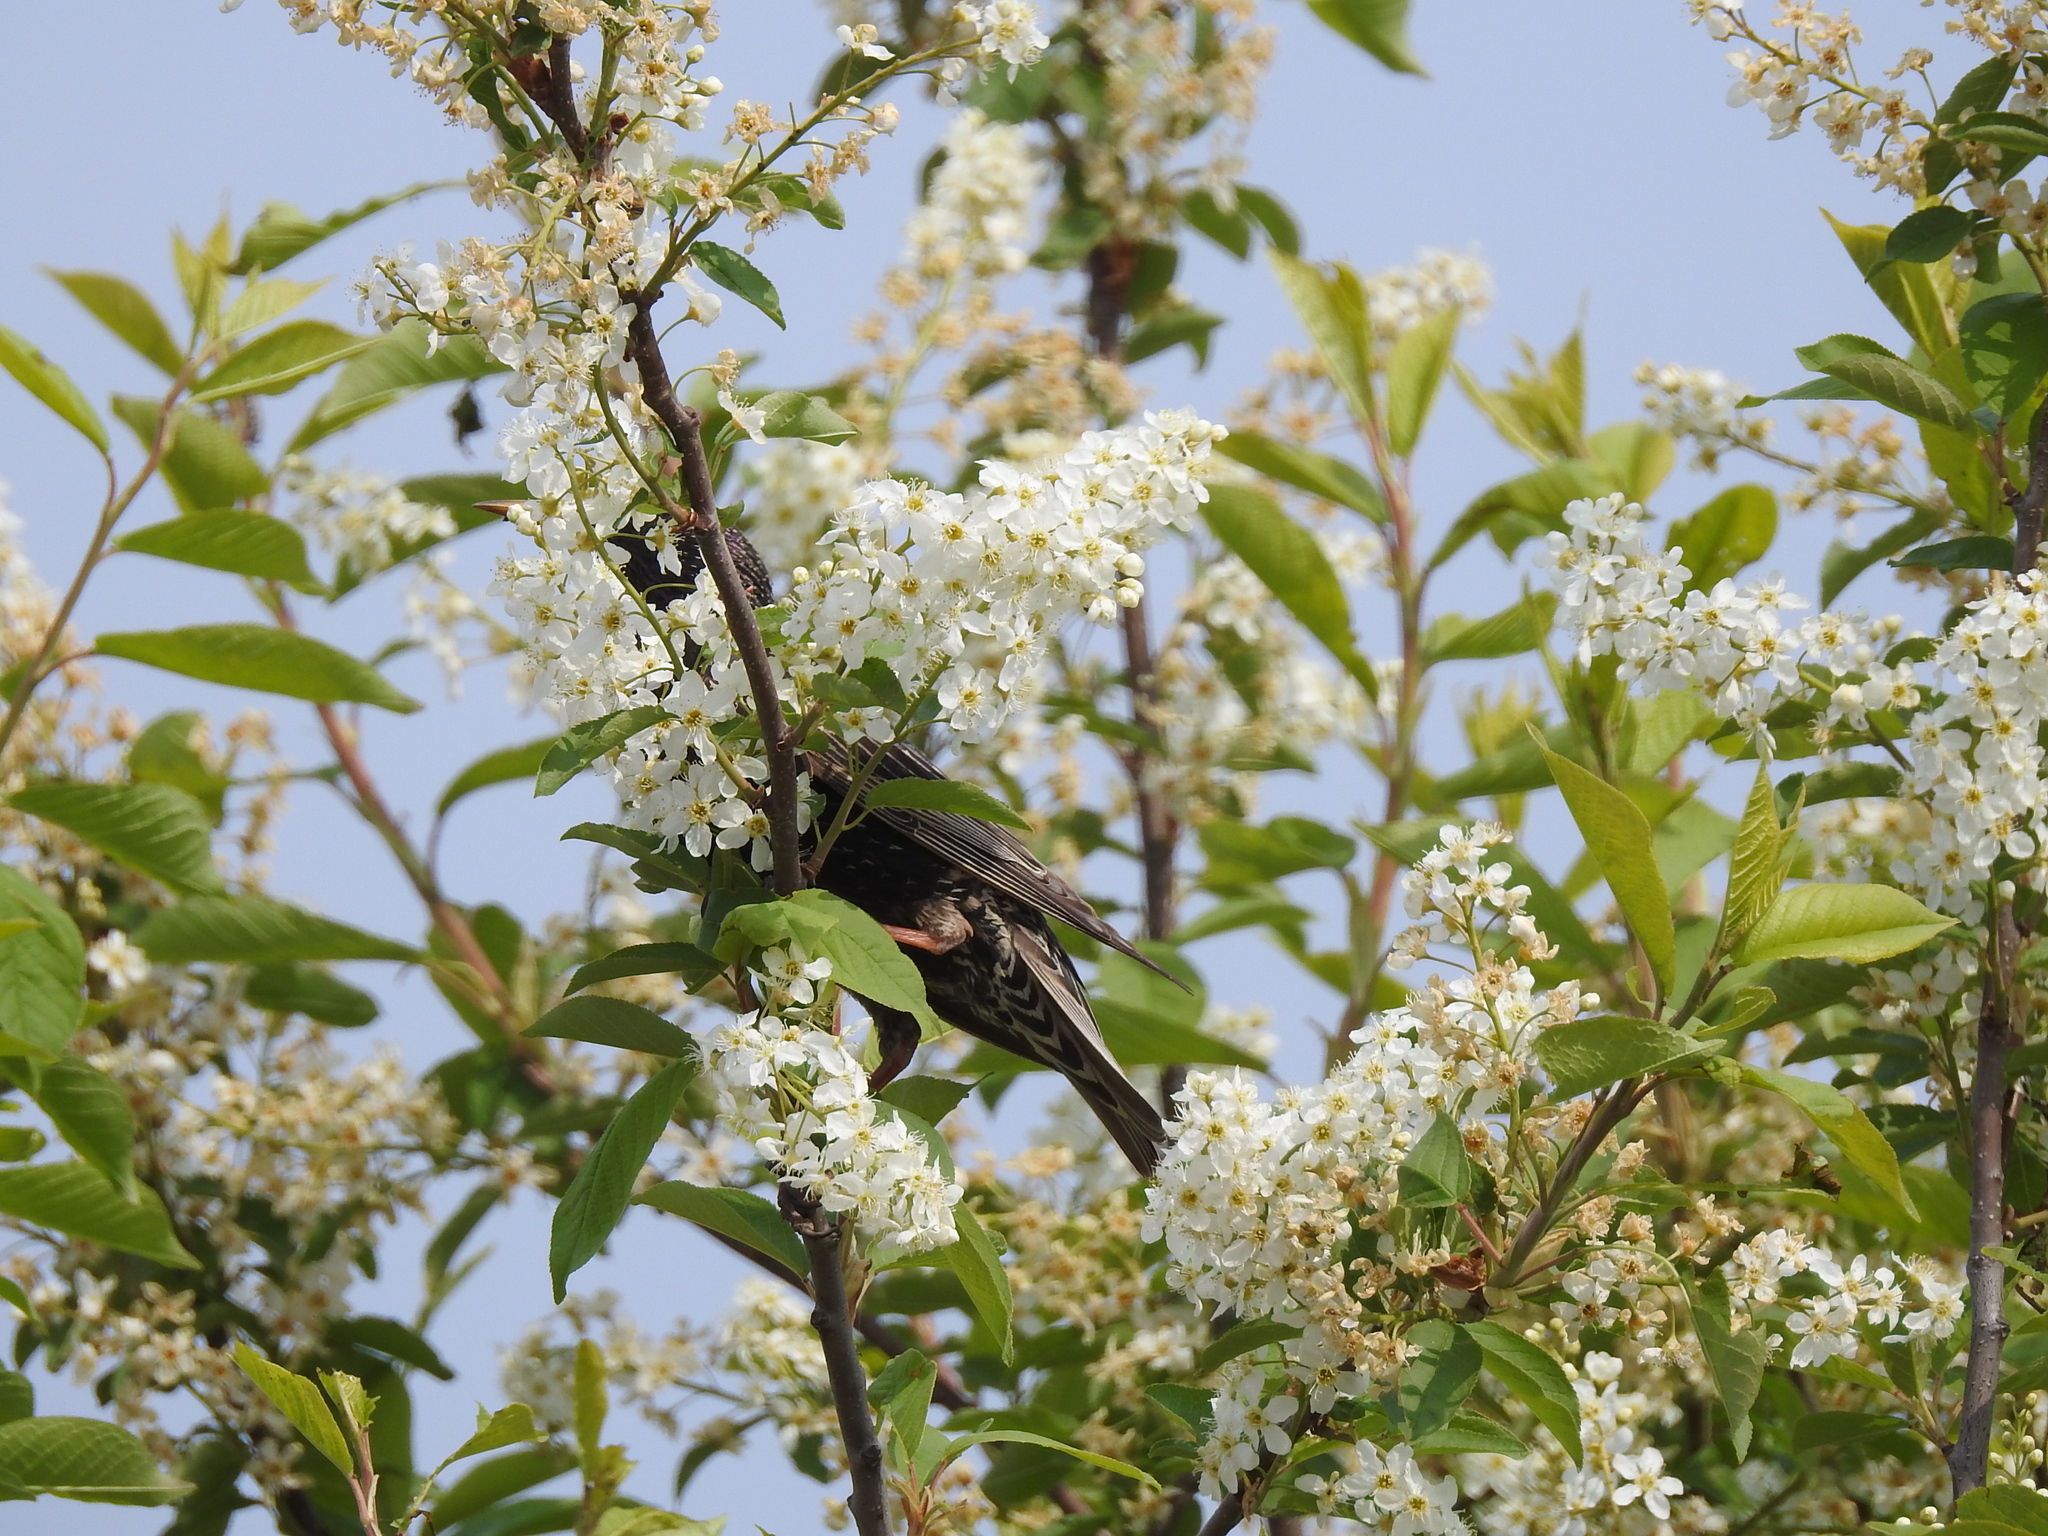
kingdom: Animalia
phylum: Chordata
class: Aves
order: Passeriformes
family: Sturnidae
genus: Sturnus
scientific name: Sturnus vulgaris
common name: Common starling
